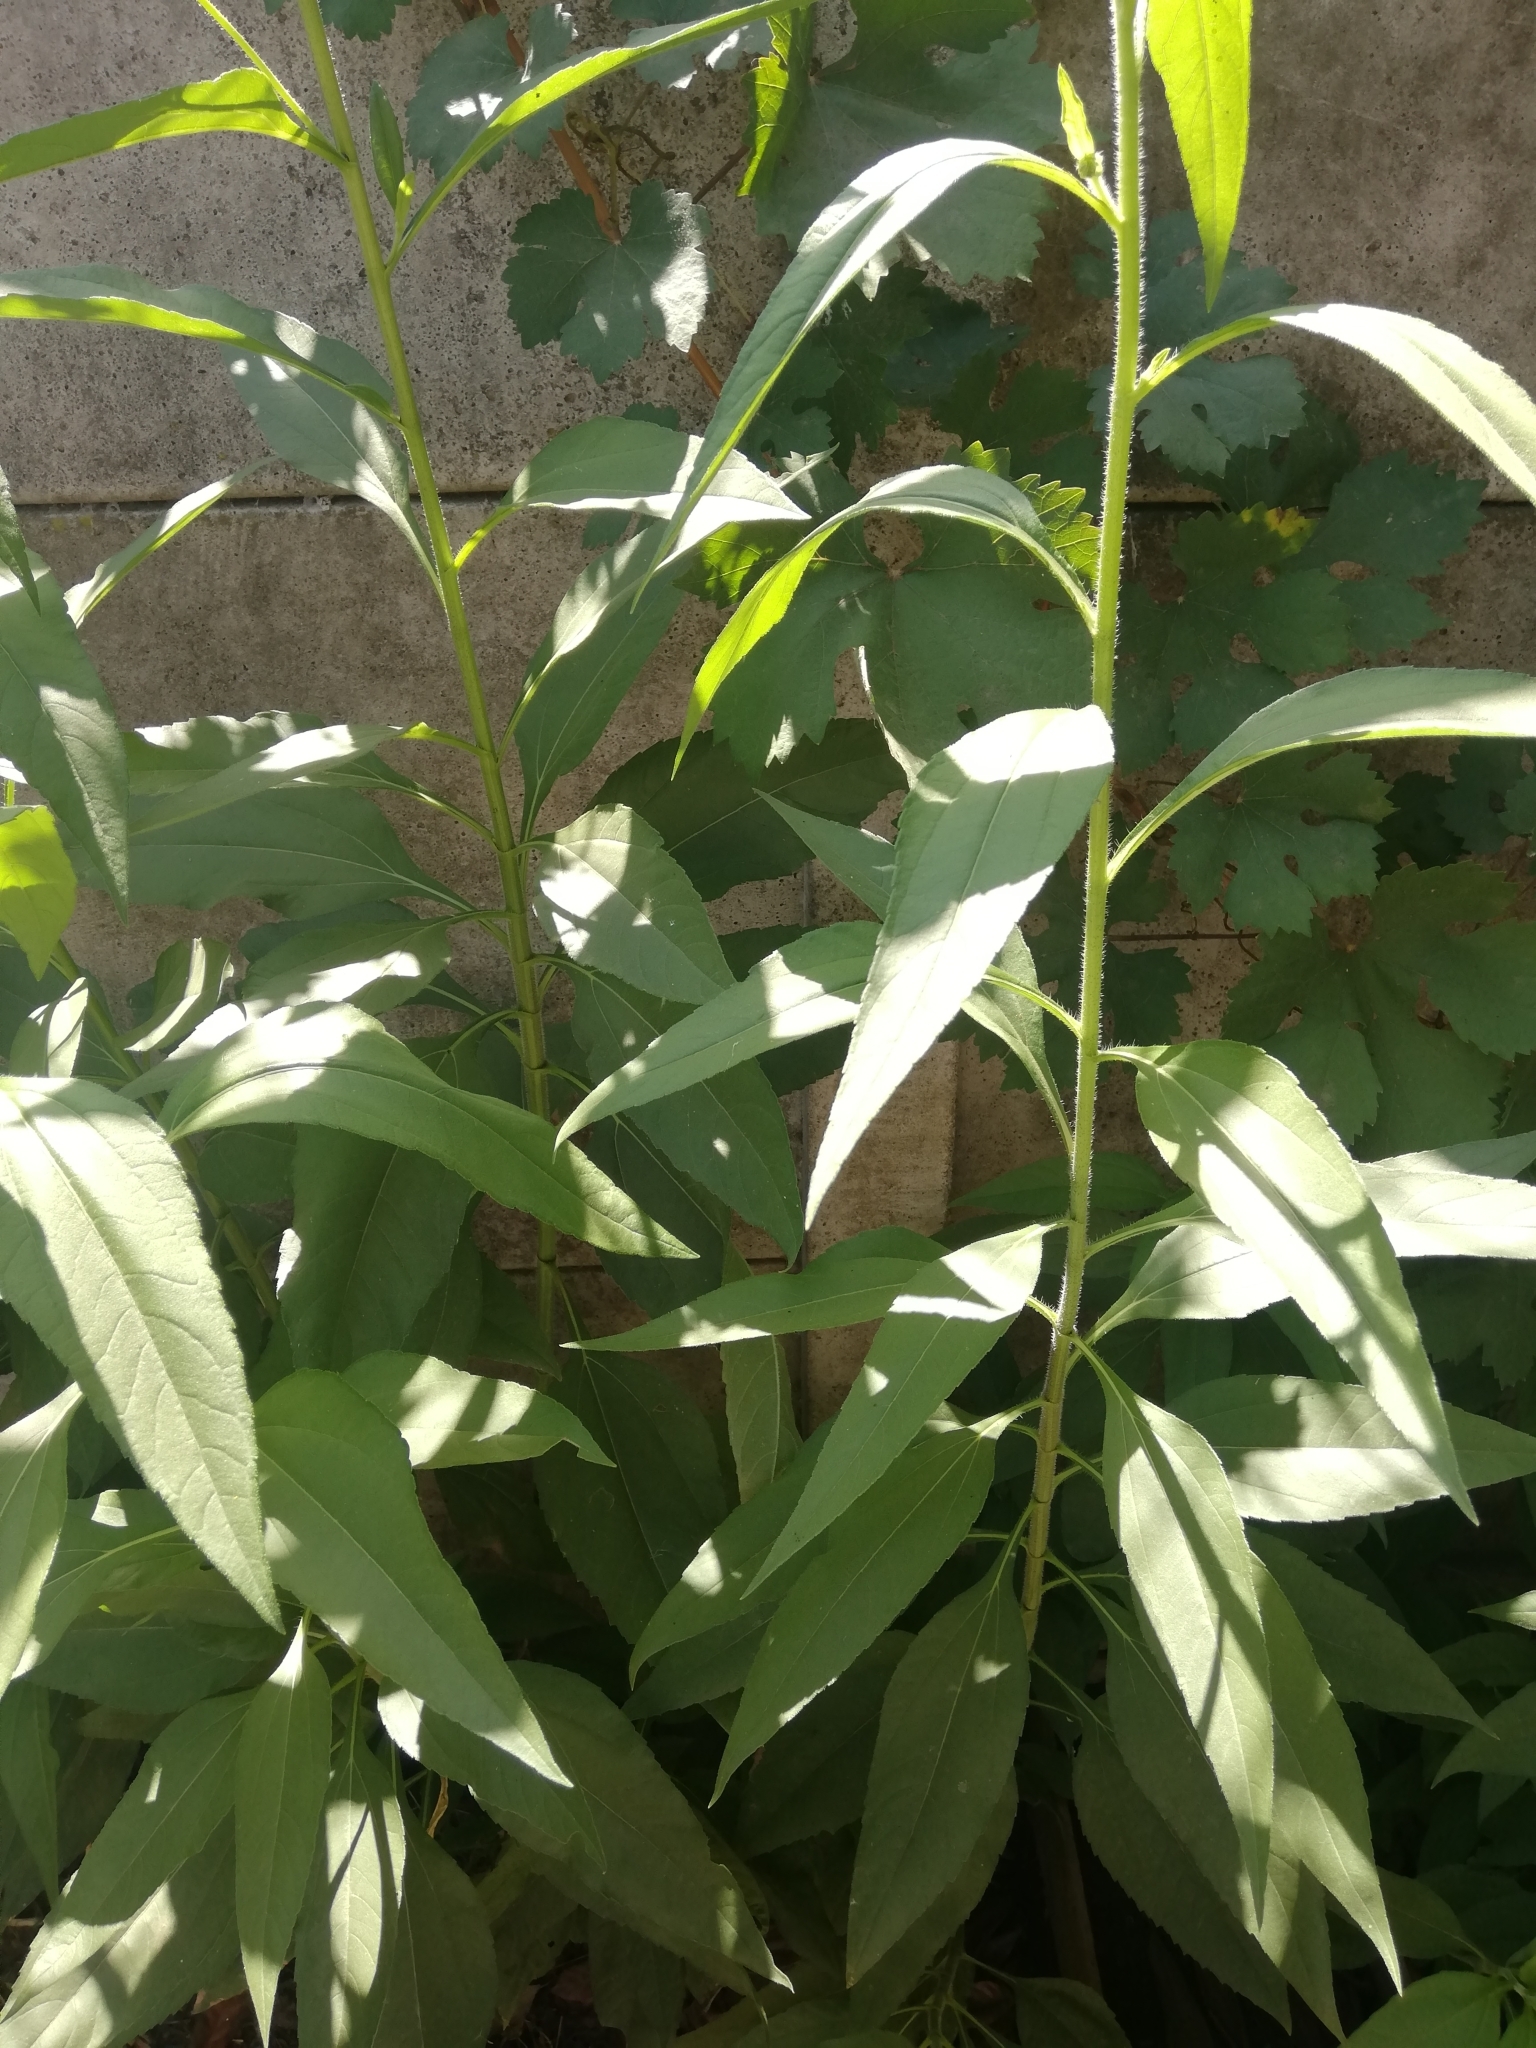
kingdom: Plantae
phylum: Tracheophyta
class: Magnoliopsida
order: Asterales
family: Asteraceae
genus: Helianthus
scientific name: Helianthus tuberosus
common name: Jerusalem artichoke
